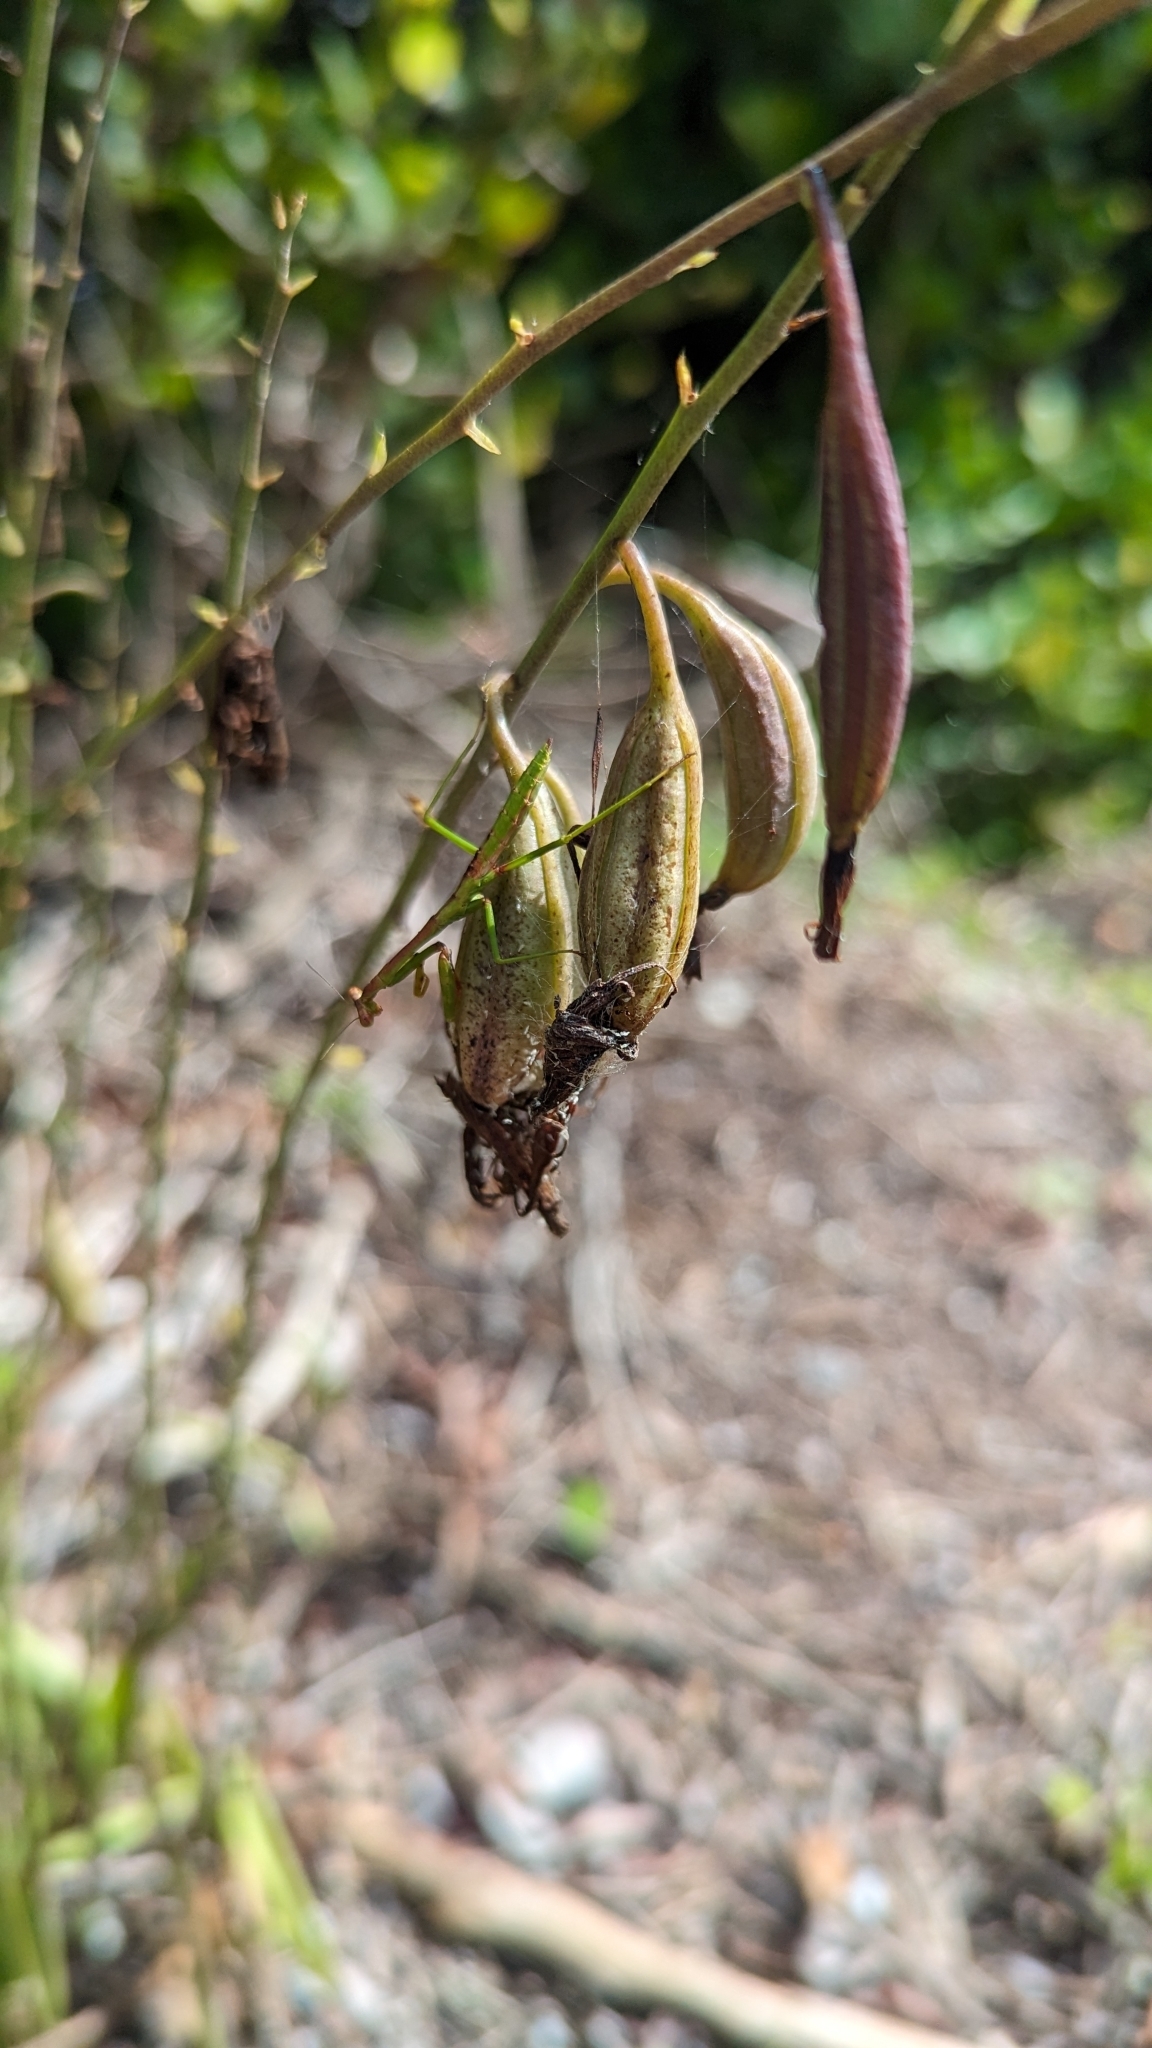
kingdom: Plantae
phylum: Tracheophyta
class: Liliopsida
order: Asparagales
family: Orchidaceae
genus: Eulophia
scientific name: Eulophia graminea
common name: Orchid
